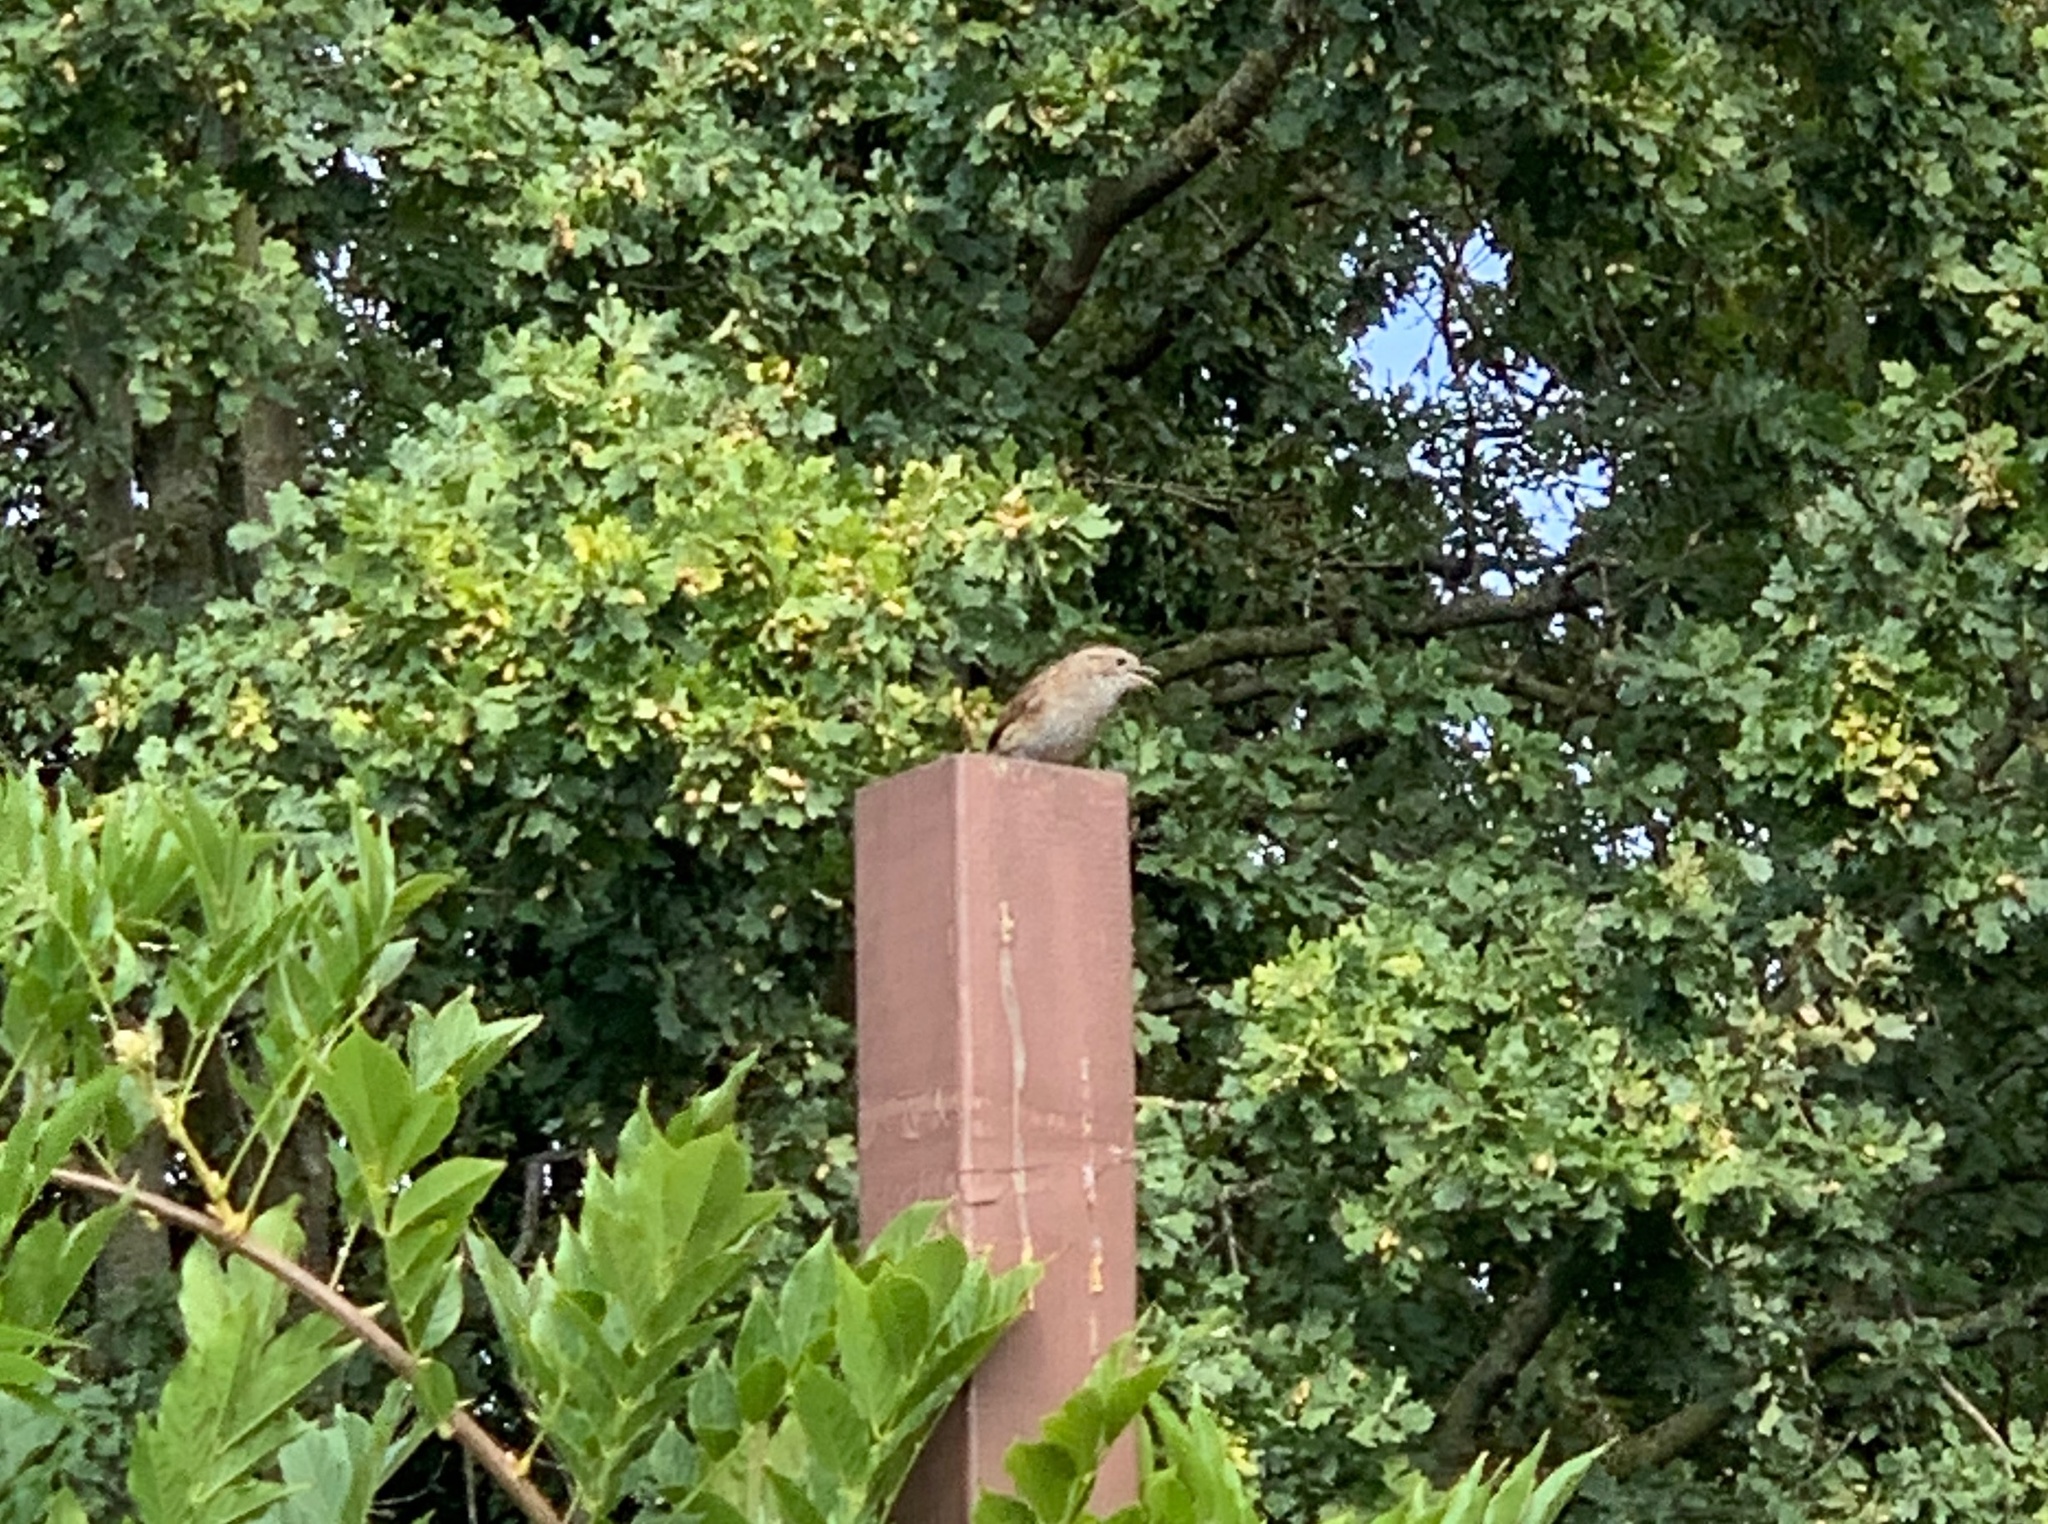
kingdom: Animalia
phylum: Chordata
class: Aves
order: Passeriformes
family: Muscicapidae
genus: Muscicapa
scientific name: Muscicapa striata
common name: Spotted flycatcher
